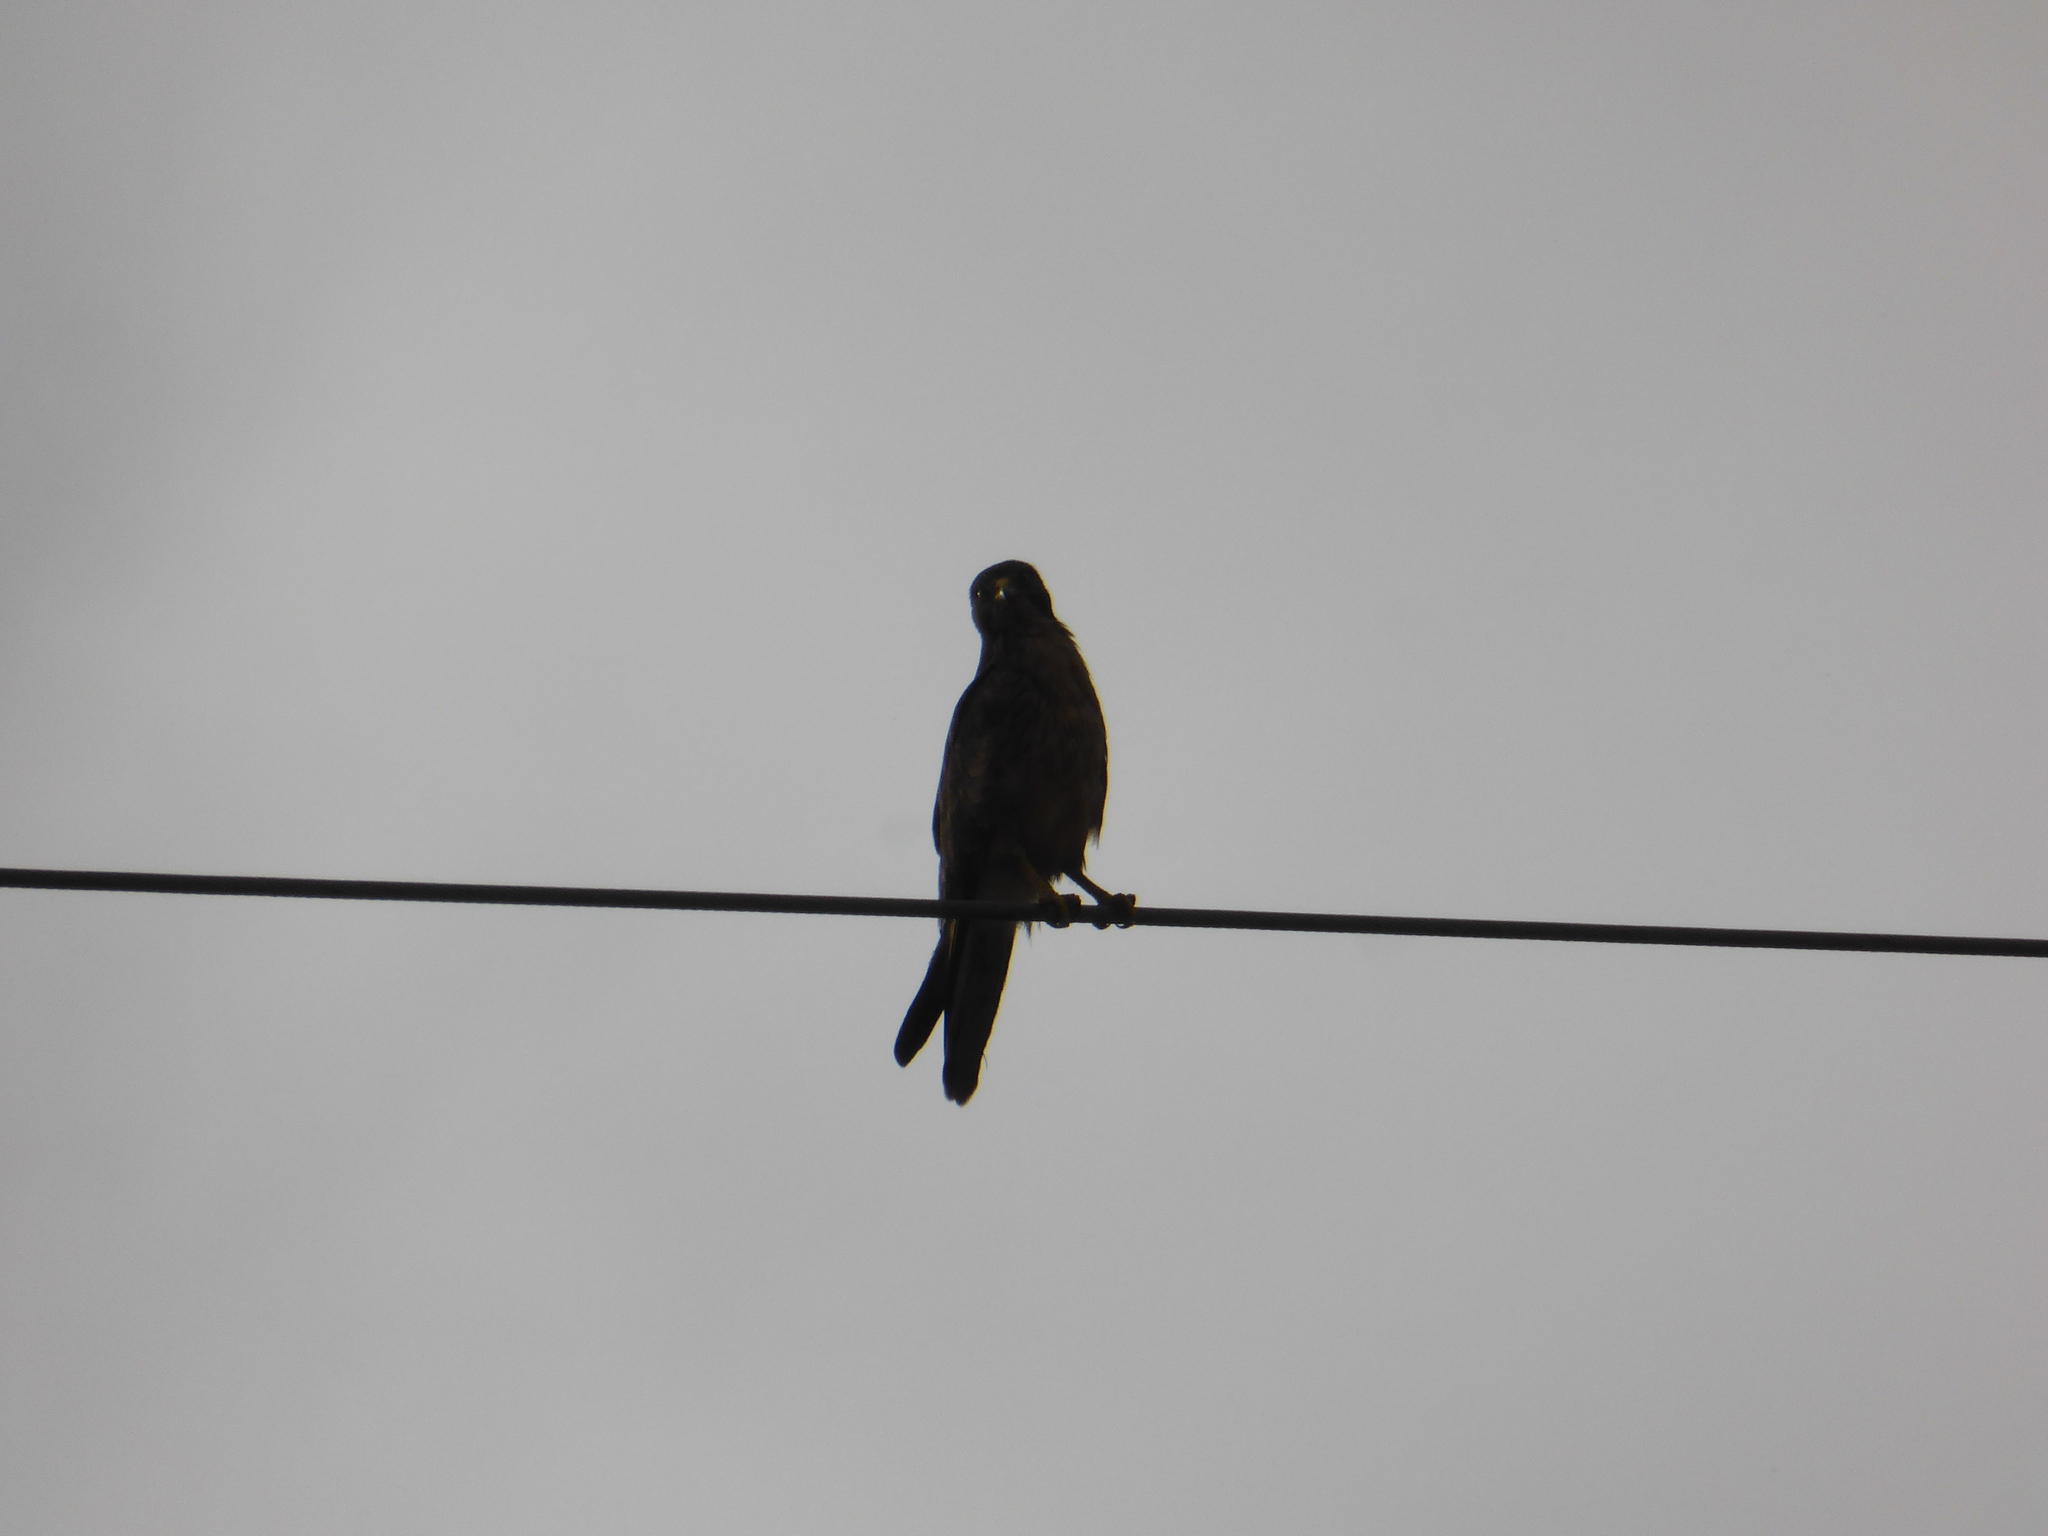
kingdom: Animalia
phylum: Chordata
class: Aves
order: Accipitriformes
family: Accipitridae
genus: Butastur
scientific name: Butastur rufipennis
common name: Grasshopper buzzard
